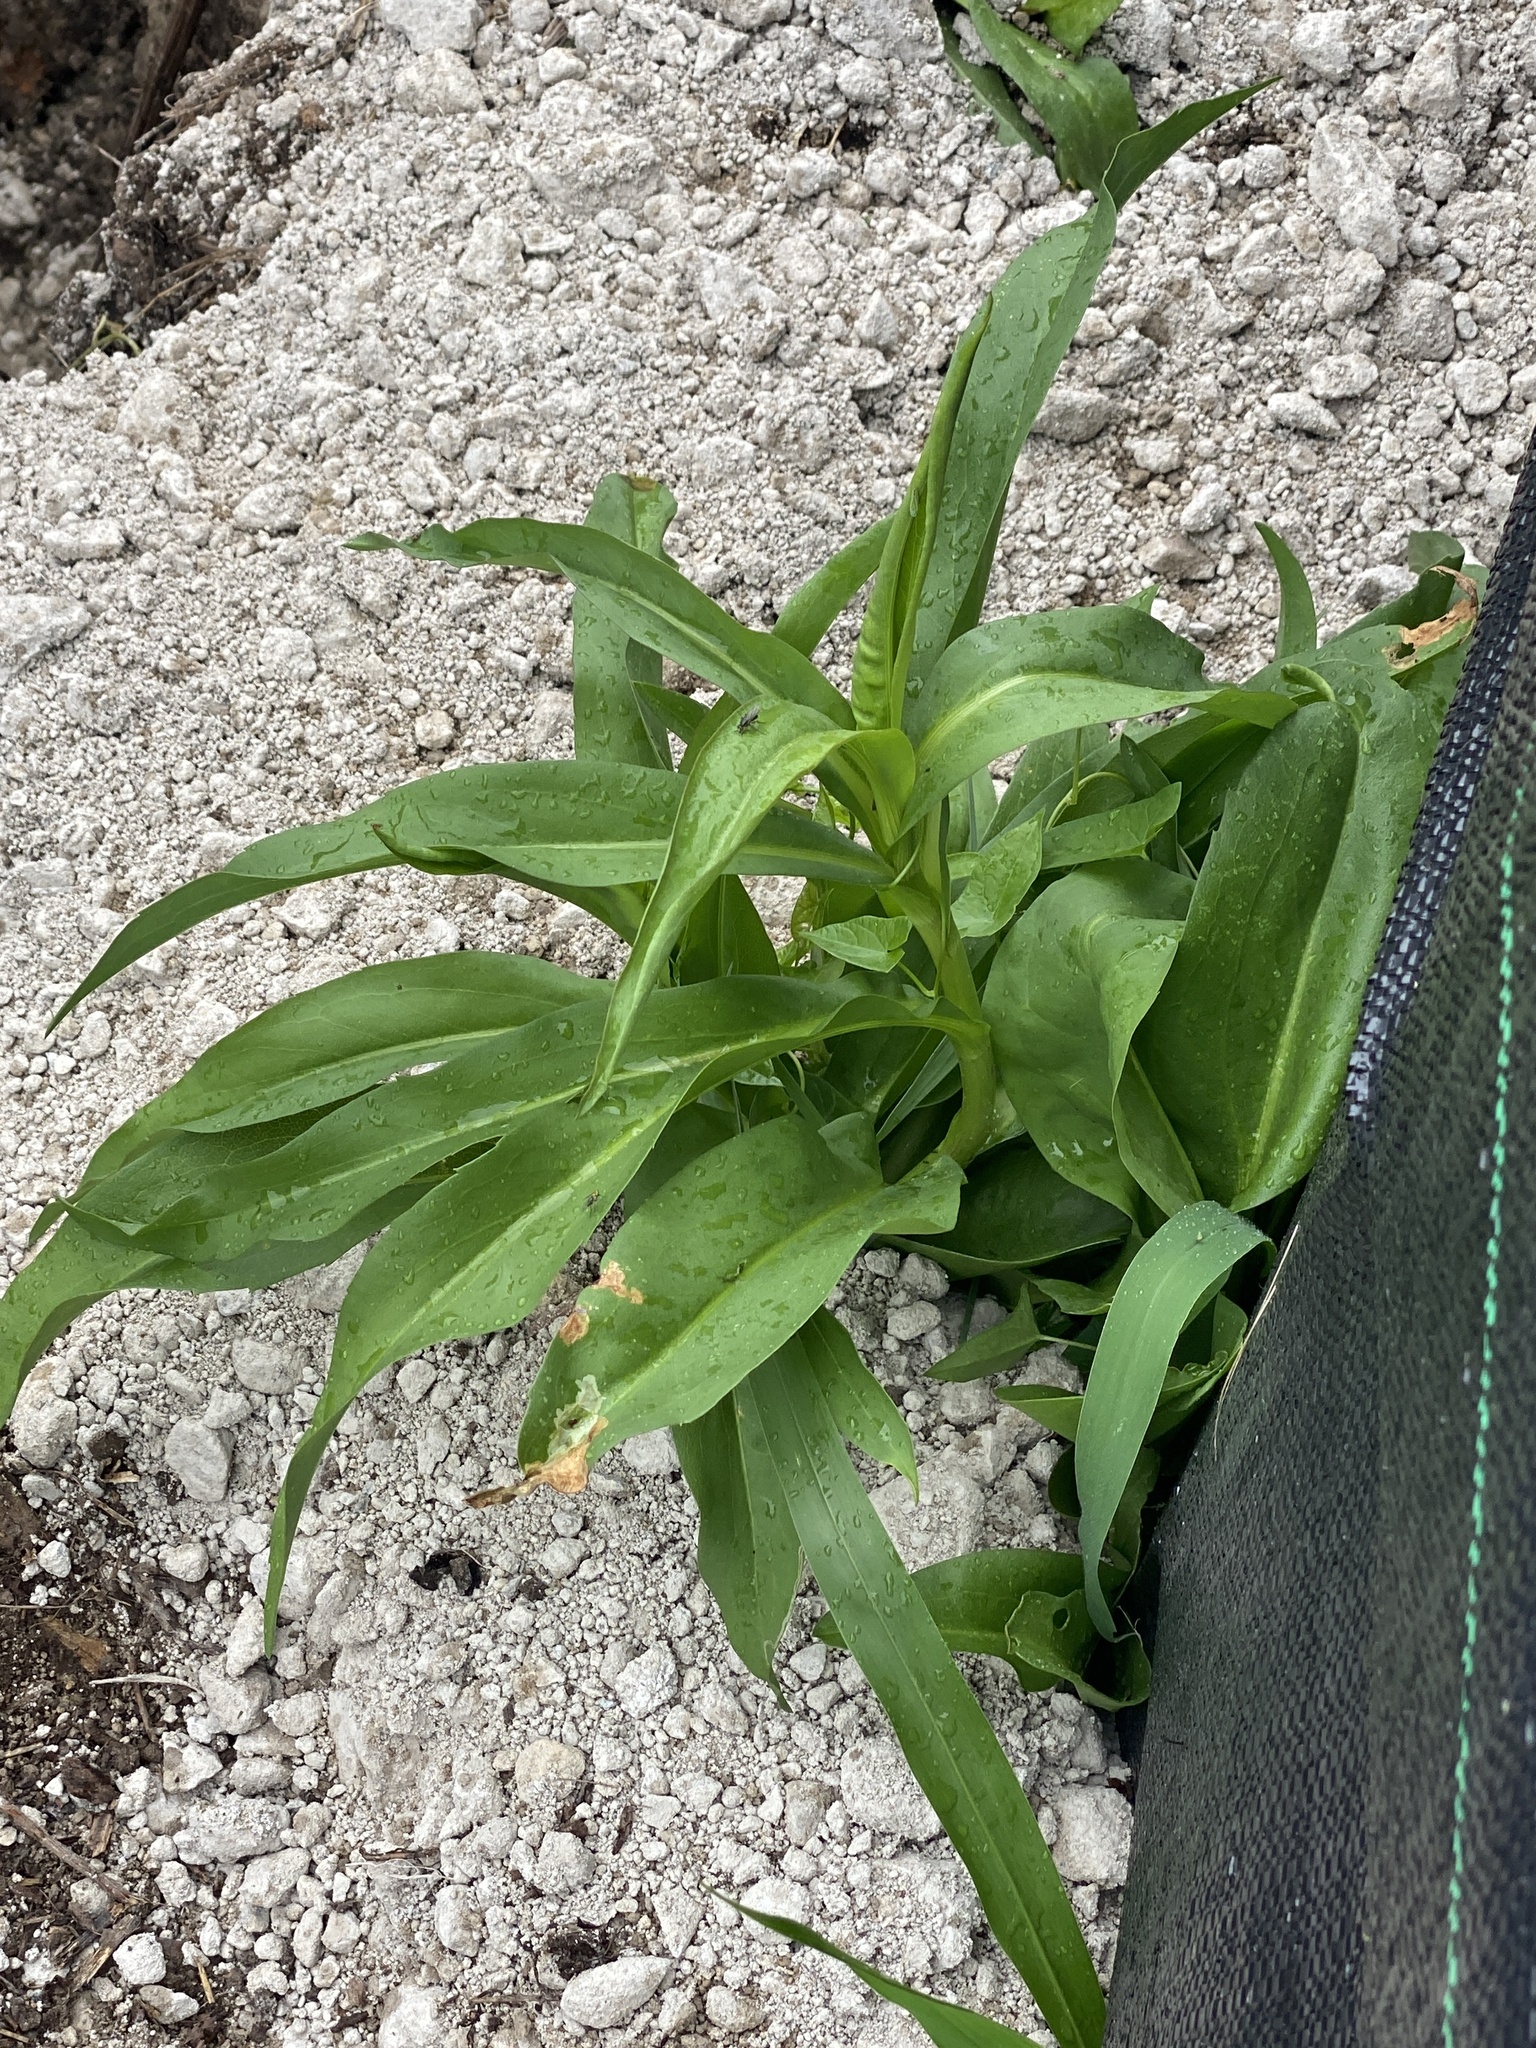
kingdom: Plantae
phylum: Tracheophyta
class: Magnoliopsida
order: Asterales
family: Asteraceae
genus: Solidago
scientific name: Solidago sempervirens
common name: Salt-marsh goldenrod
